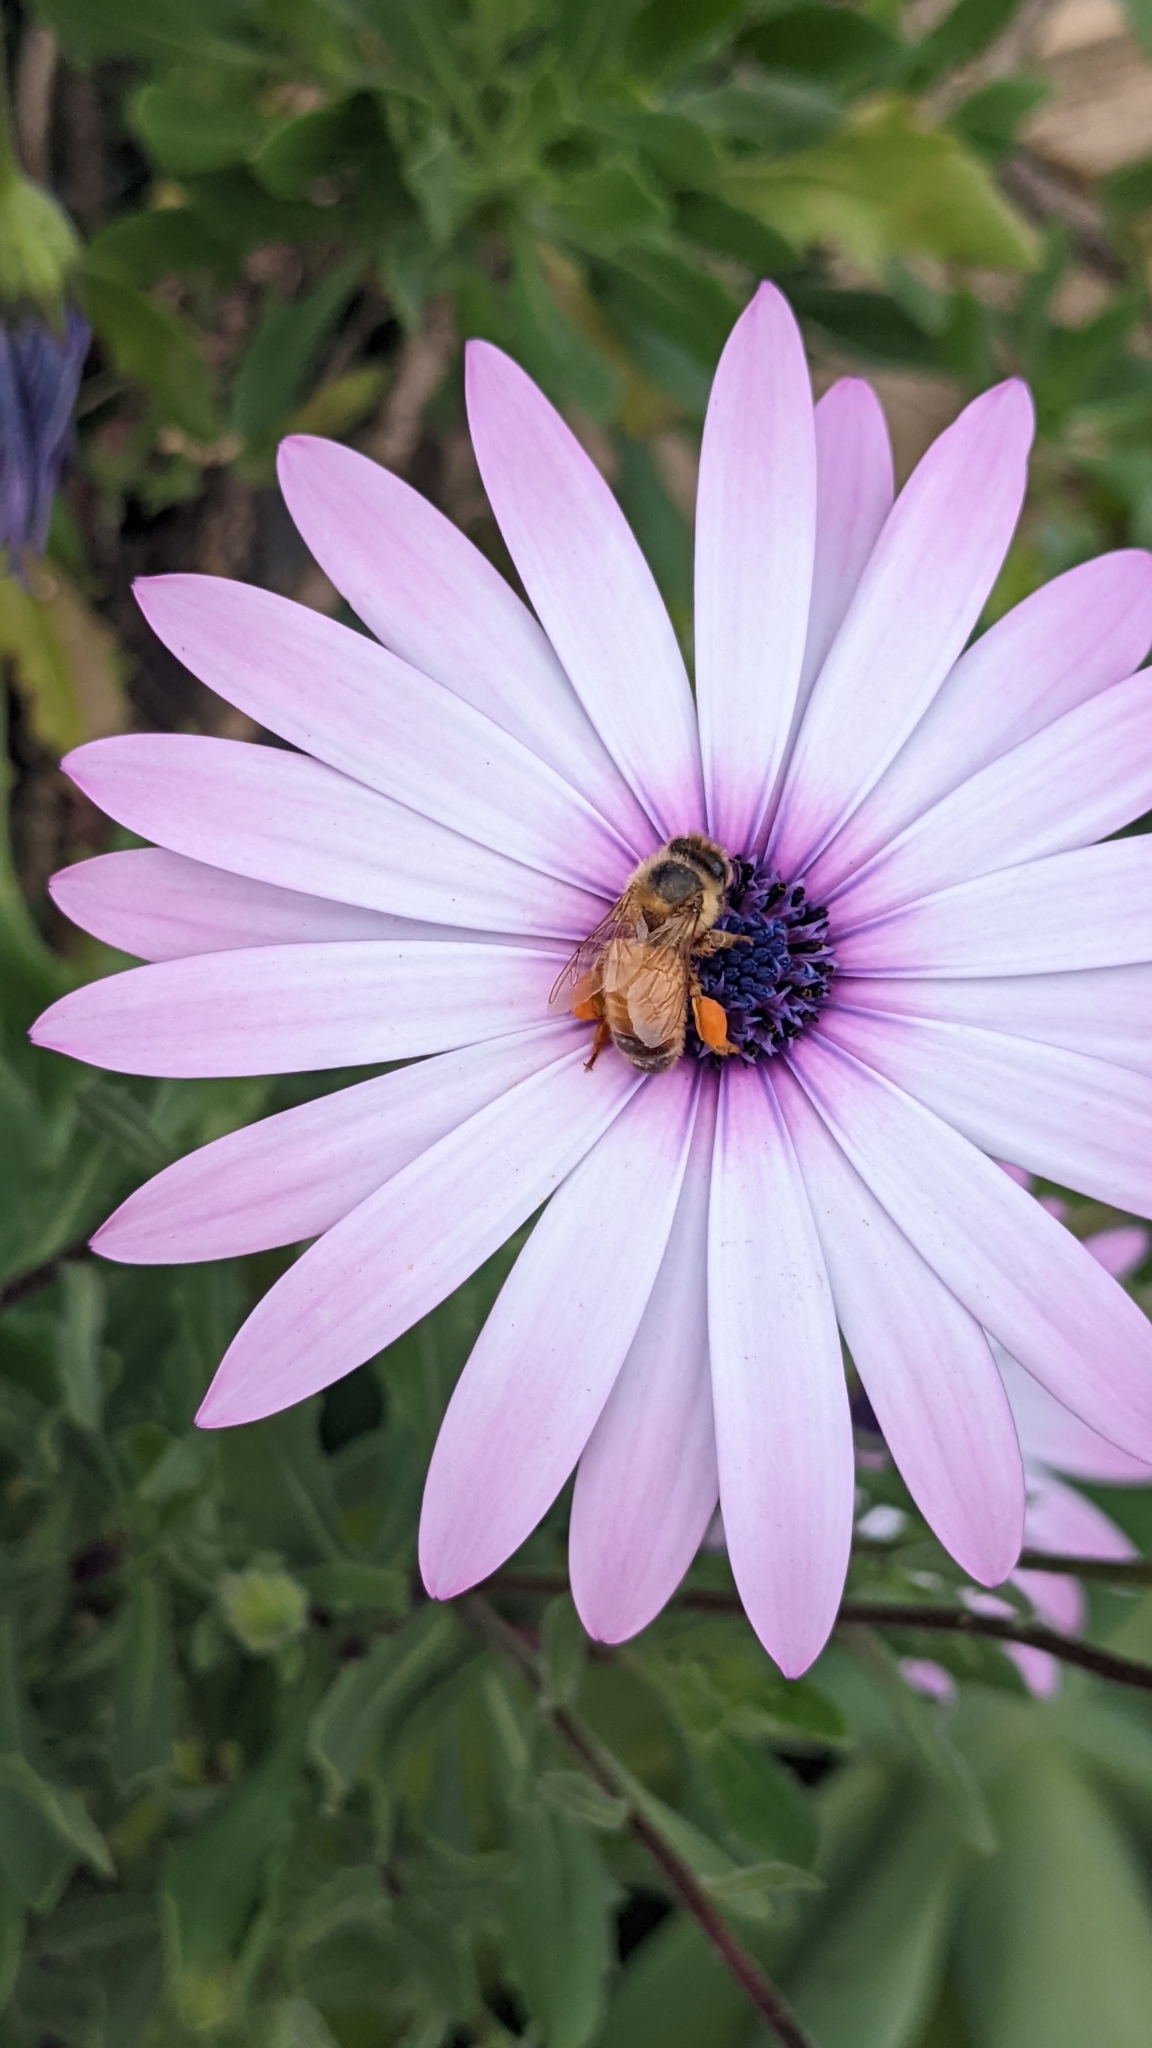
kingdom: Animalia
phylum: Arthropoda
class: Insecta
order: Hymenoptera
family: Apidae
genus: Apis
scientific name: Apis mellifera
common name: Honey bee
